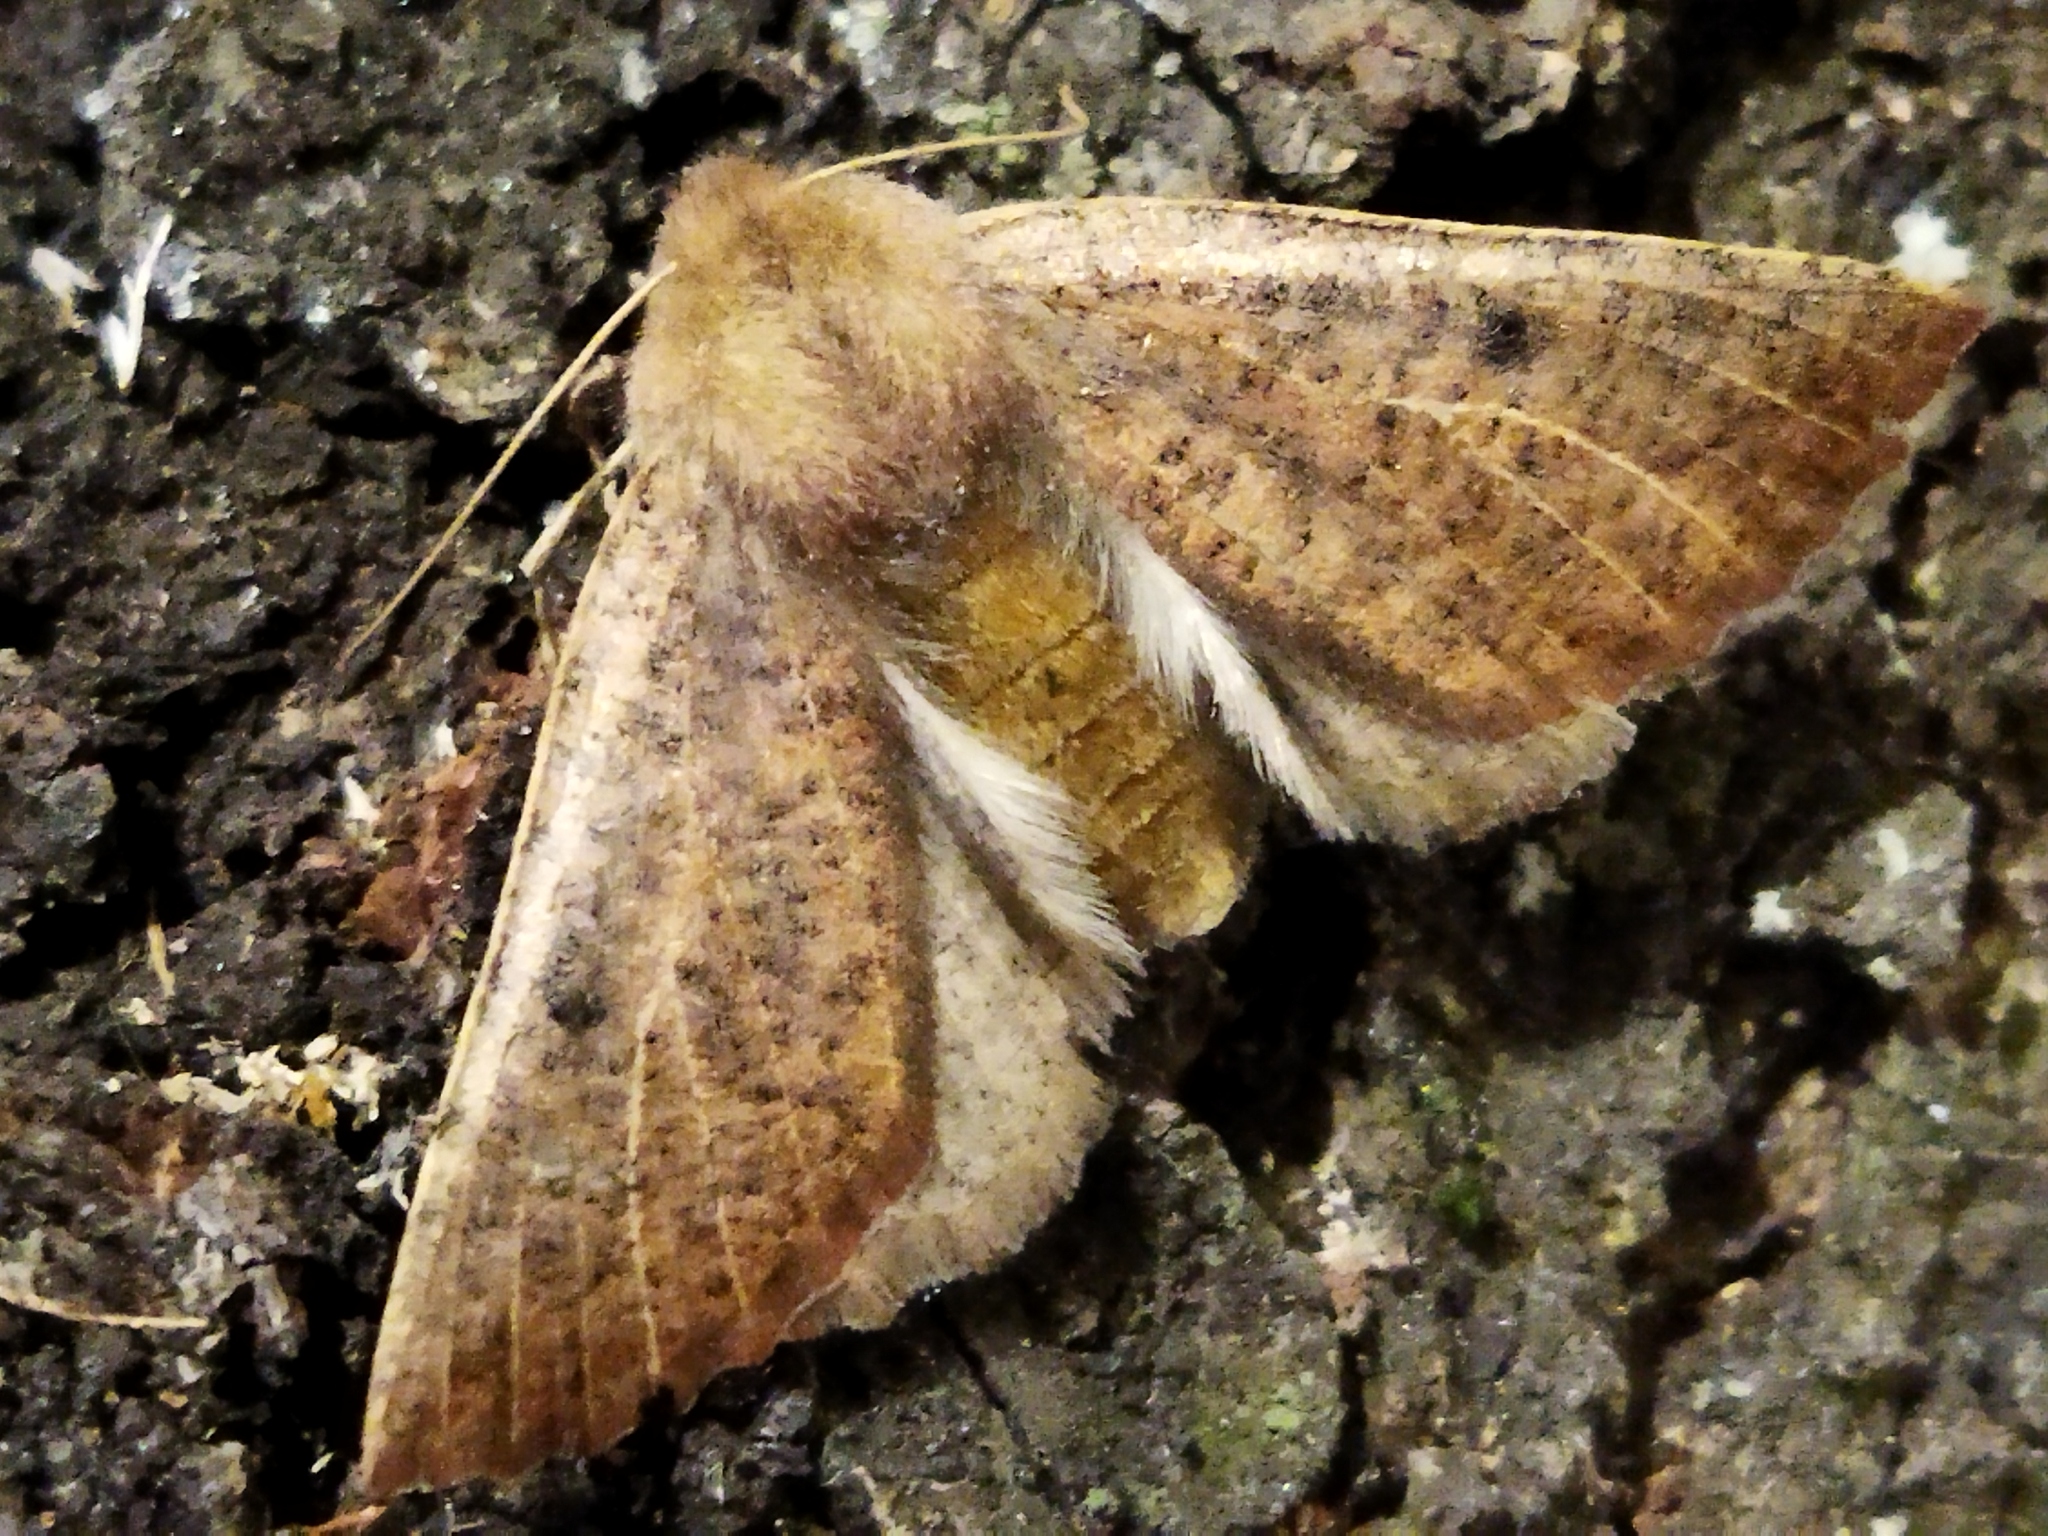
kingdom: Animalia
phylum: Arthropoda
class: Insecta
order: Lepidoptera
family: Geometridae
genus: Dasycorsa
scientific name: Dasycorsa modesta
